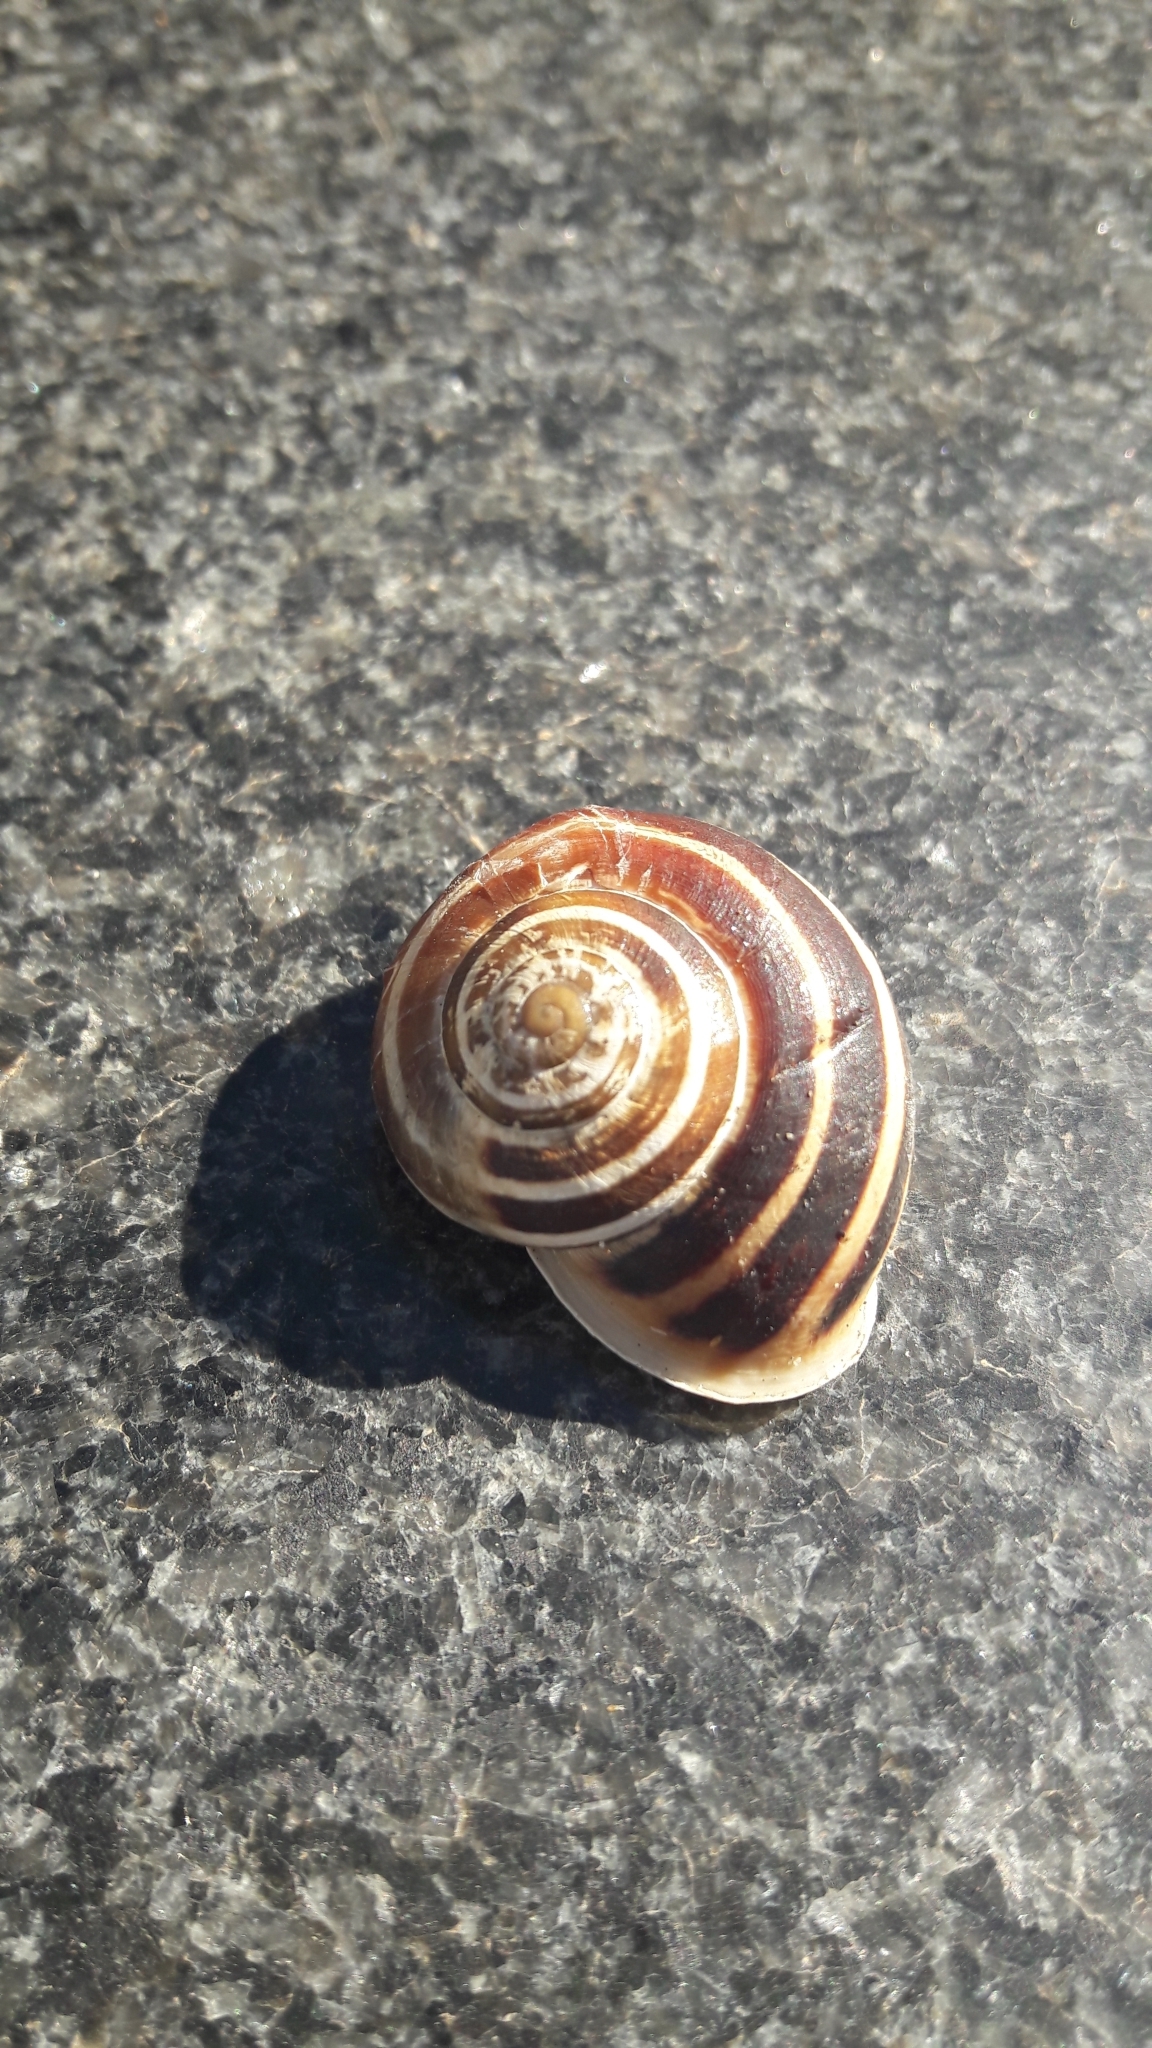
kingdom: Animalia
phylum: Mollusca
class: Gastropoda
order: Stylommatophora
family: Helicidae
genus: Eobania
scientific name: Eobania vermiculata
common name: Chocolateband snail
